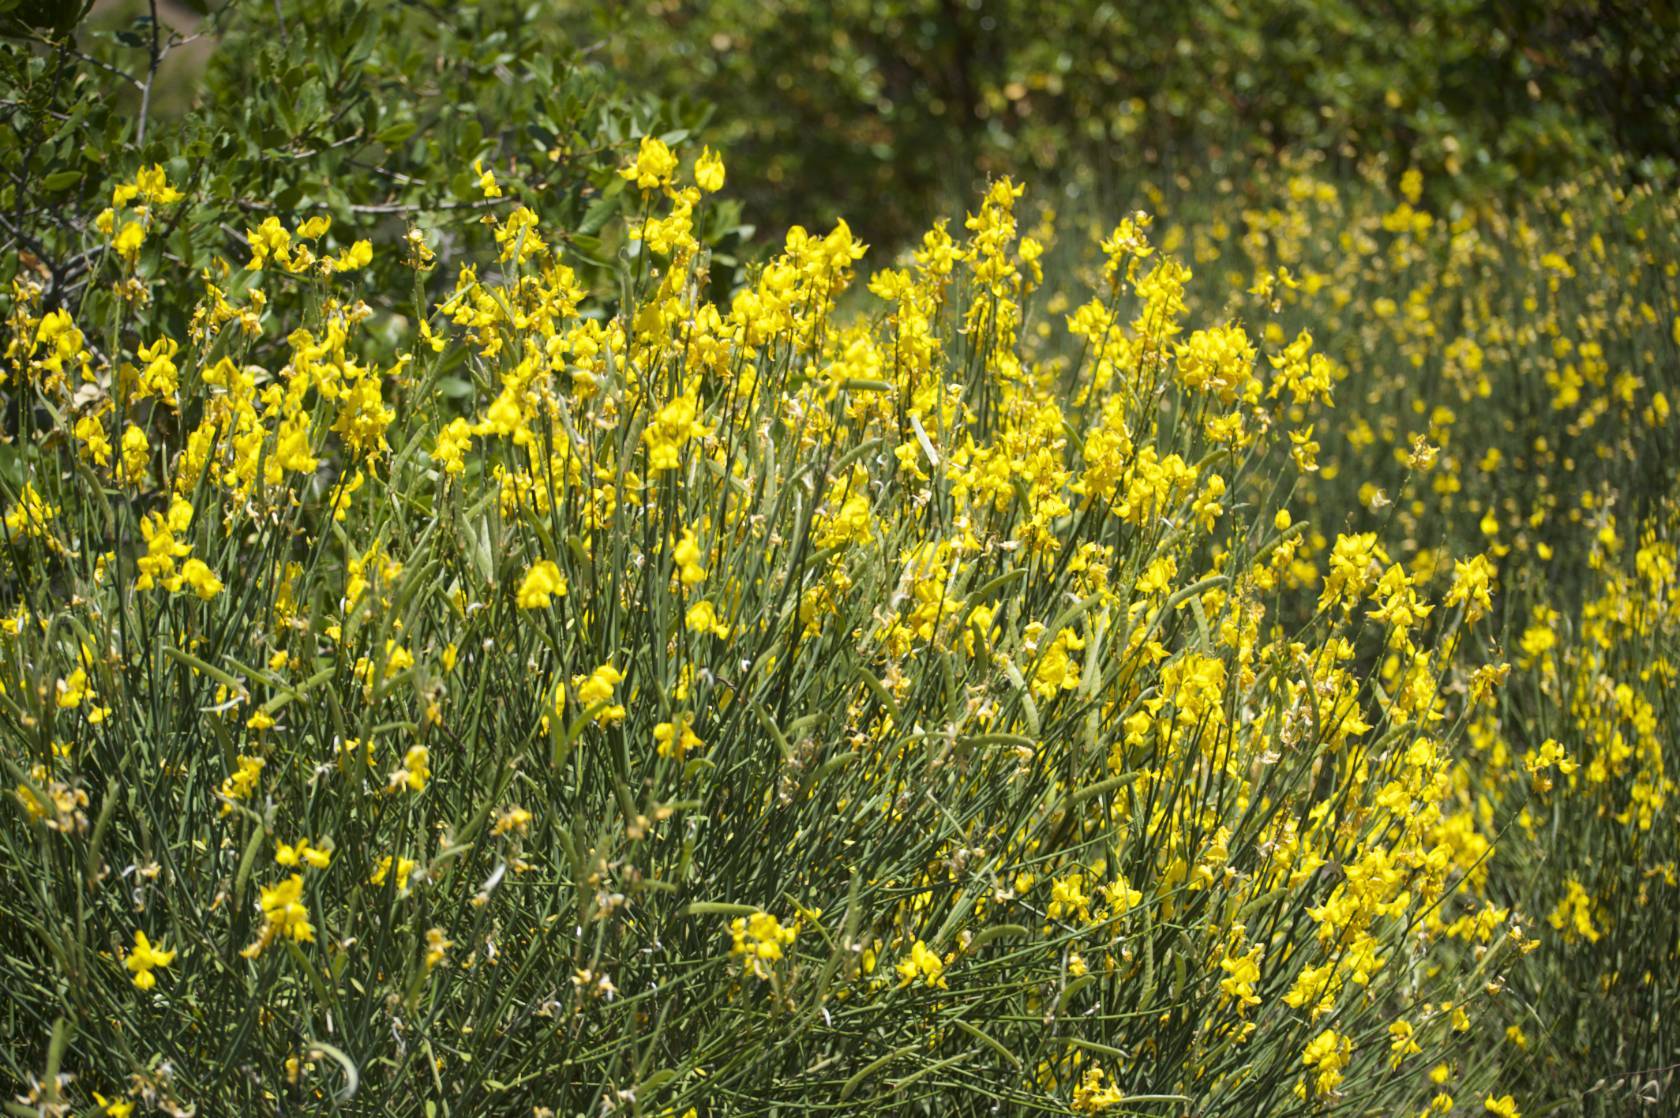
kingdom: Plantae
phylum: Tracheophyta
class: Magnoliopsida
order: Fabales
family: Fabaceae
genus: Spartium
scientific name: Spartium junceum
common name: Spanish broom
